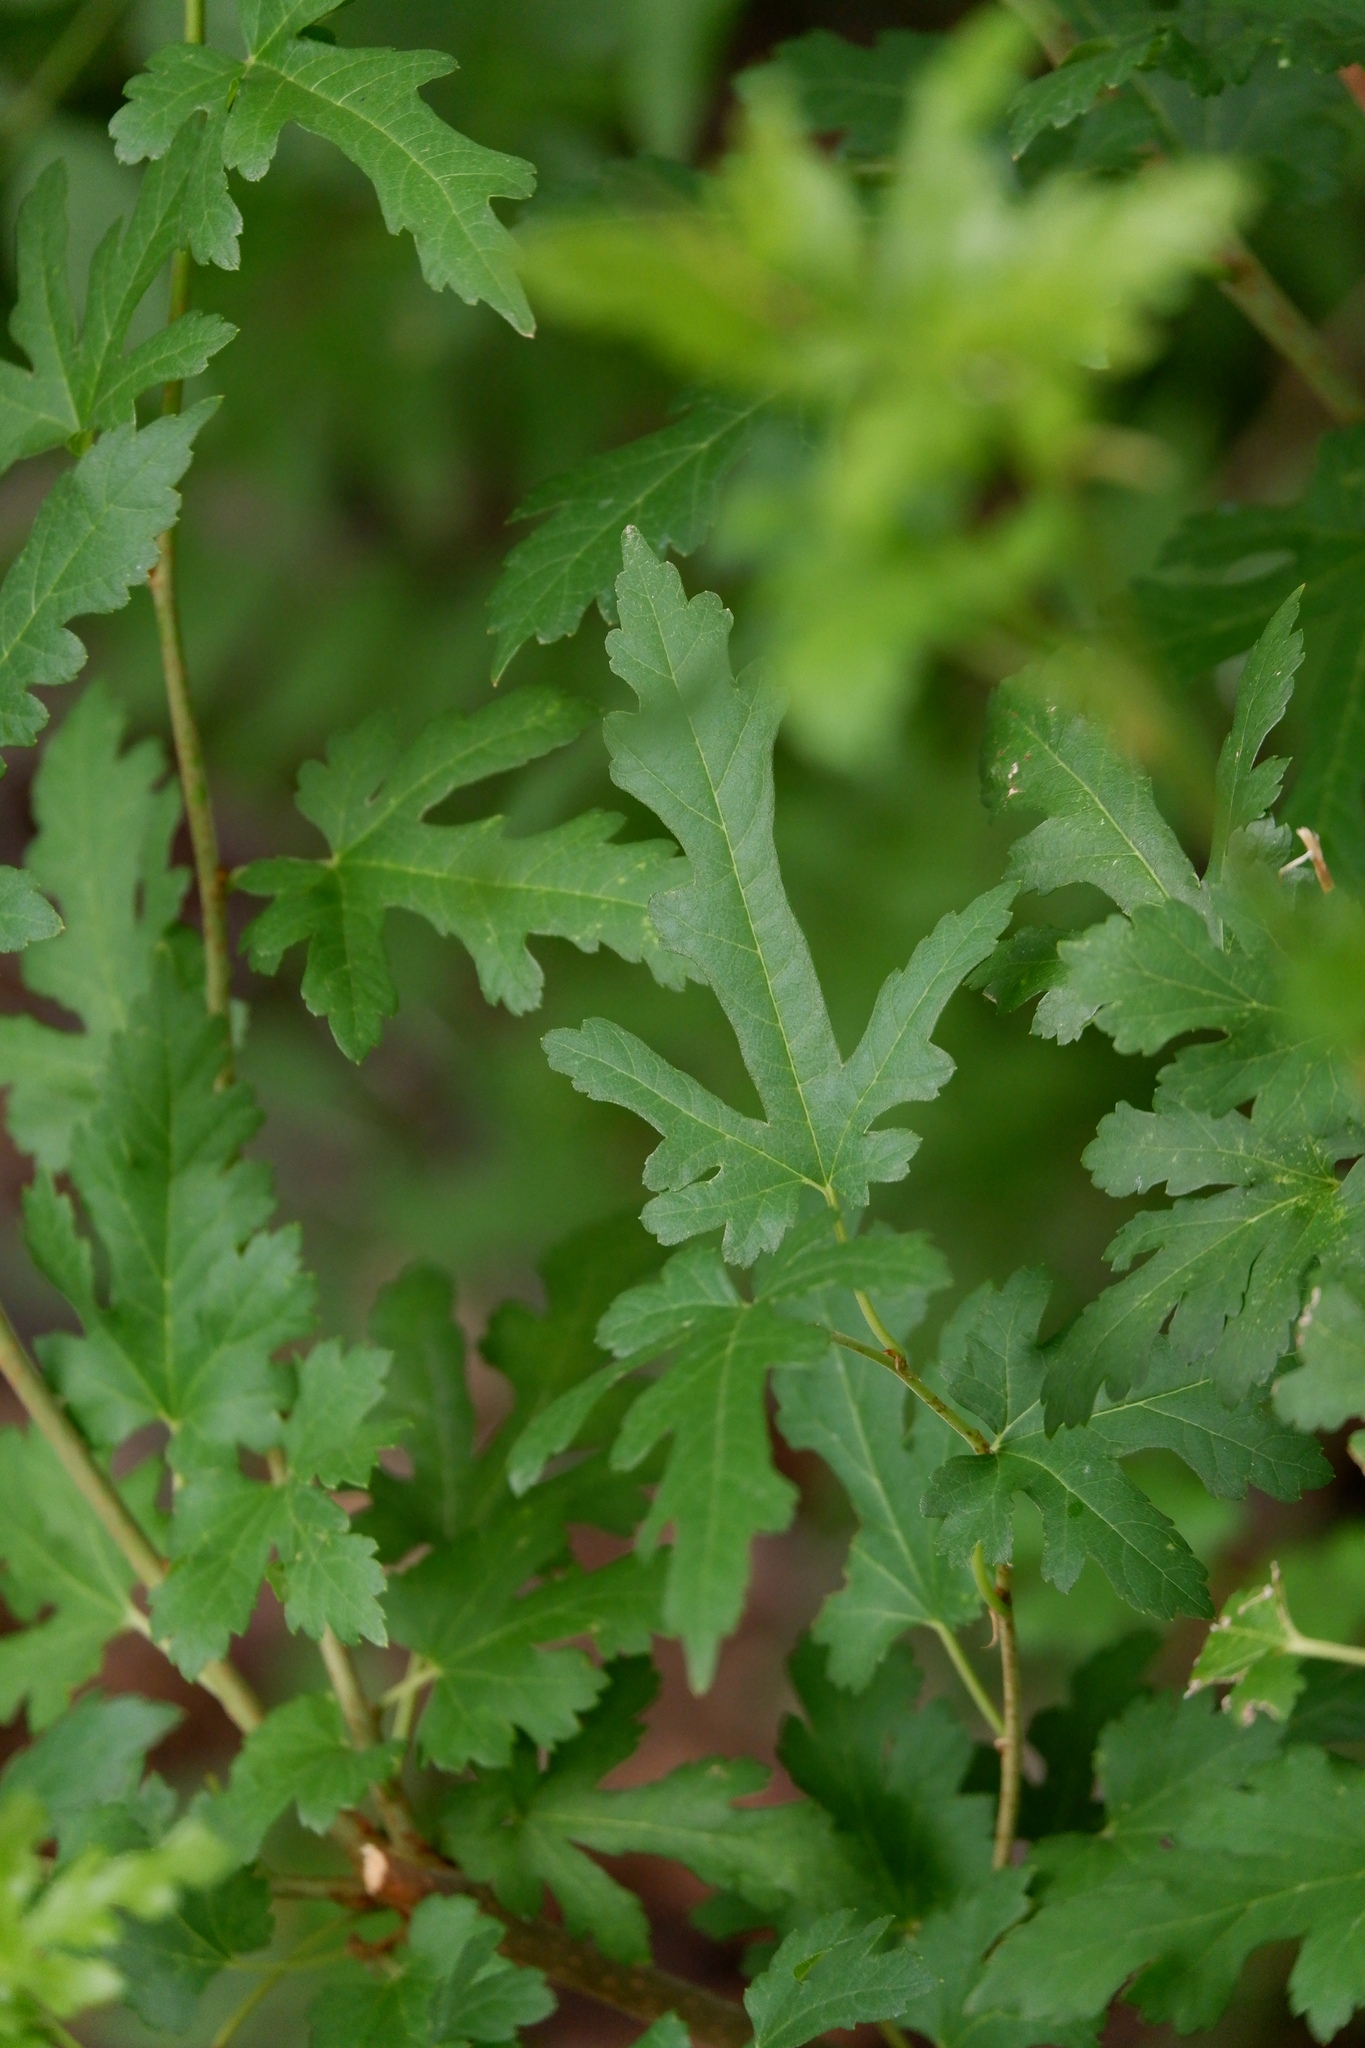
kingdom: Plantae
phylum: Tracheophyta
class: Magnoliopsida
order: Rosales
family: Moraceae
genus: Morus
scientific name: Morus indica
